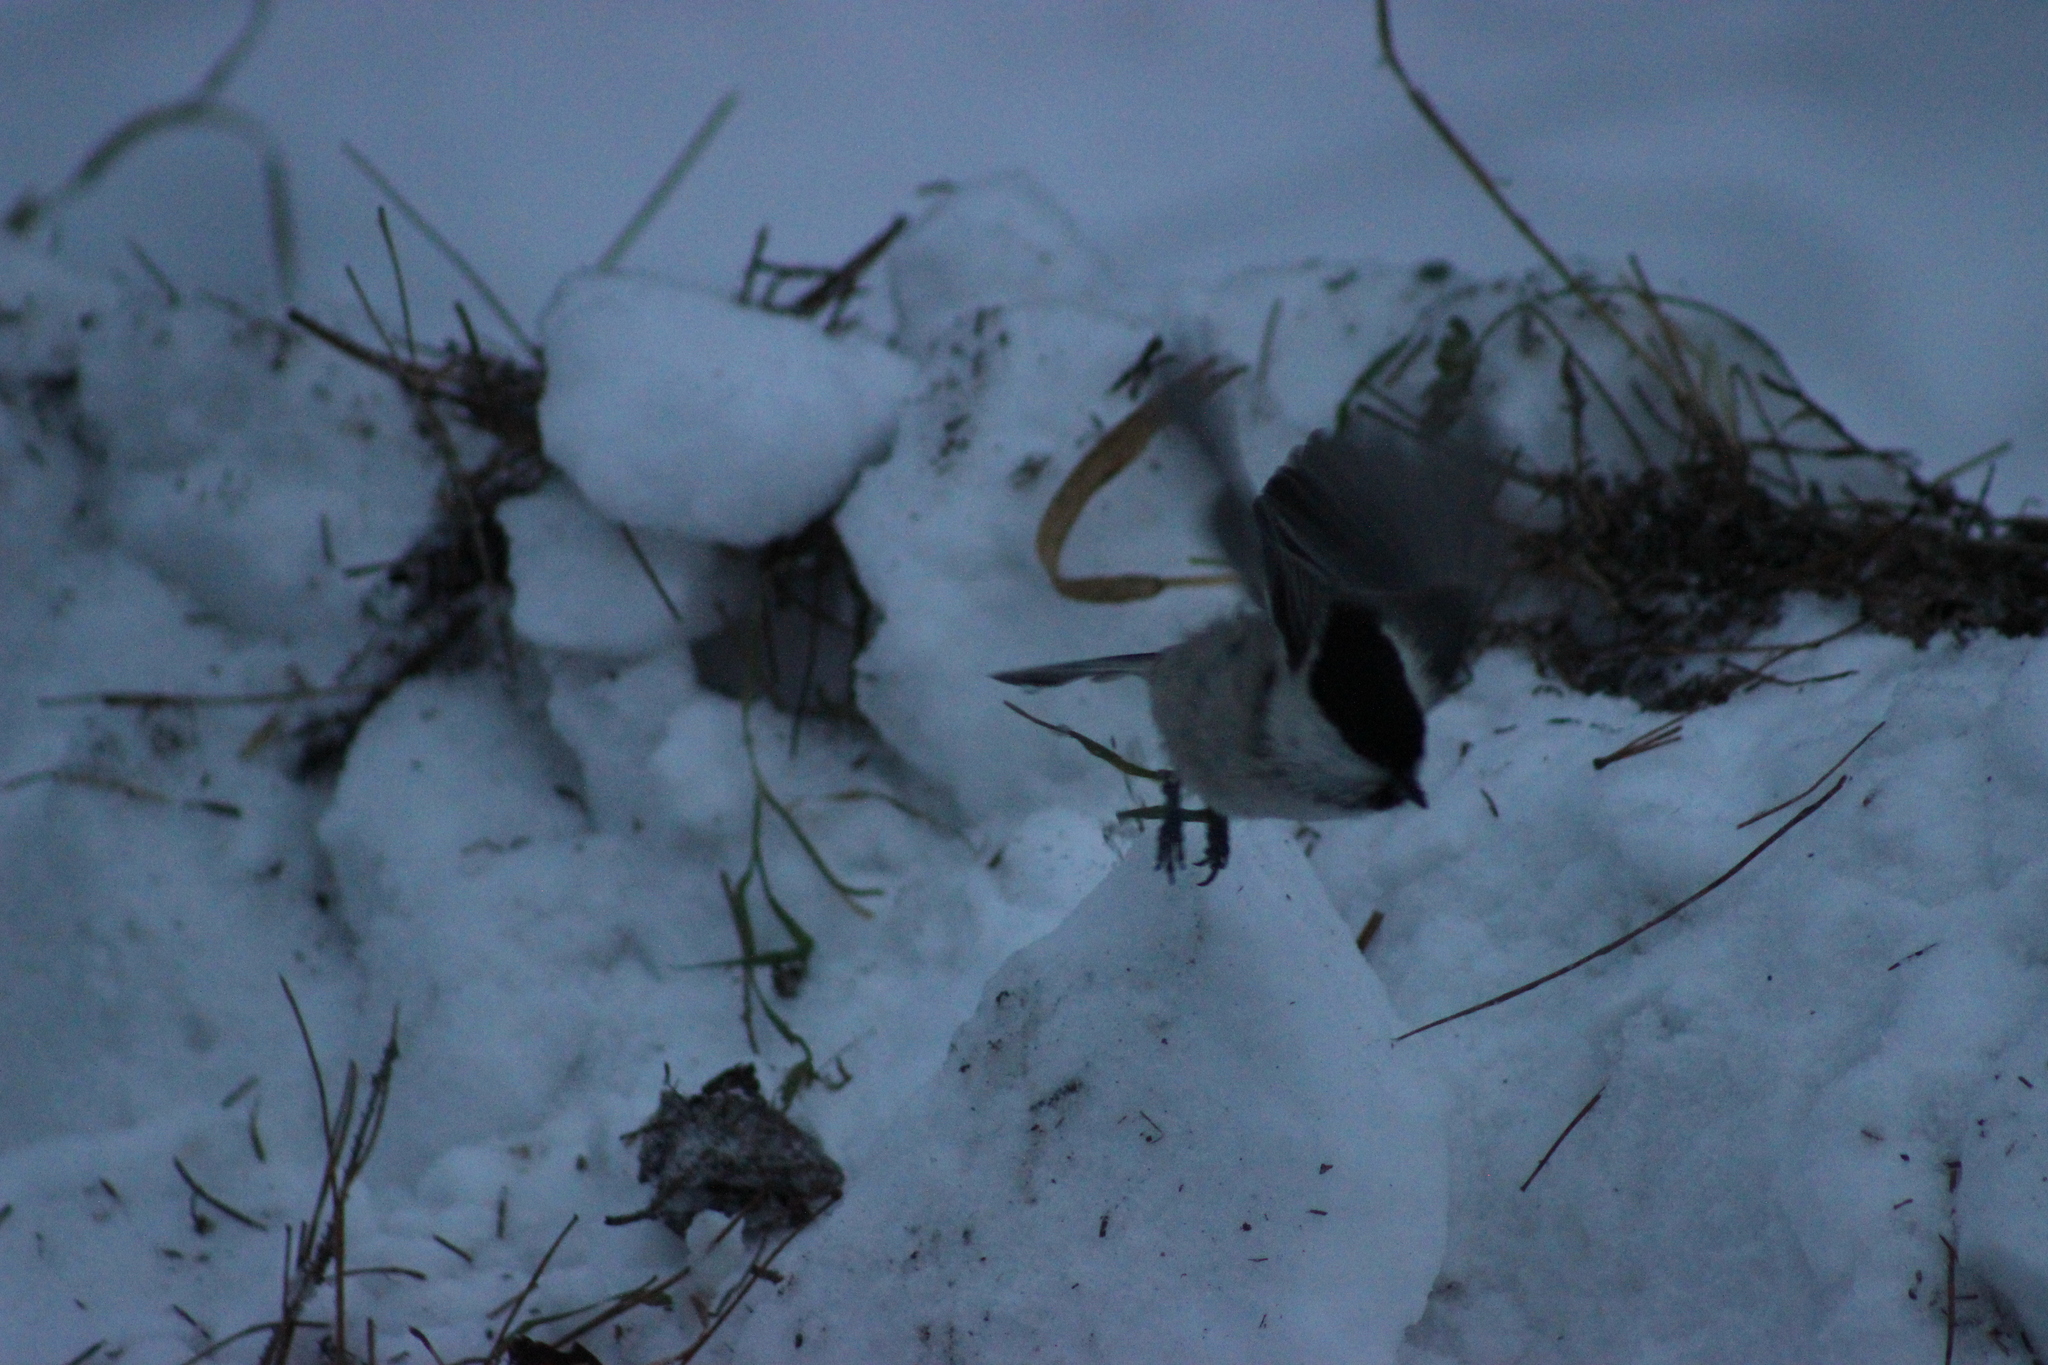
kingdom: Animalia
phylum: Chordata
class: Aves
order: Passeriformes
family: Paridae
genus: Poecile
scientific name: Poecile montanus
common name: Willow tit
